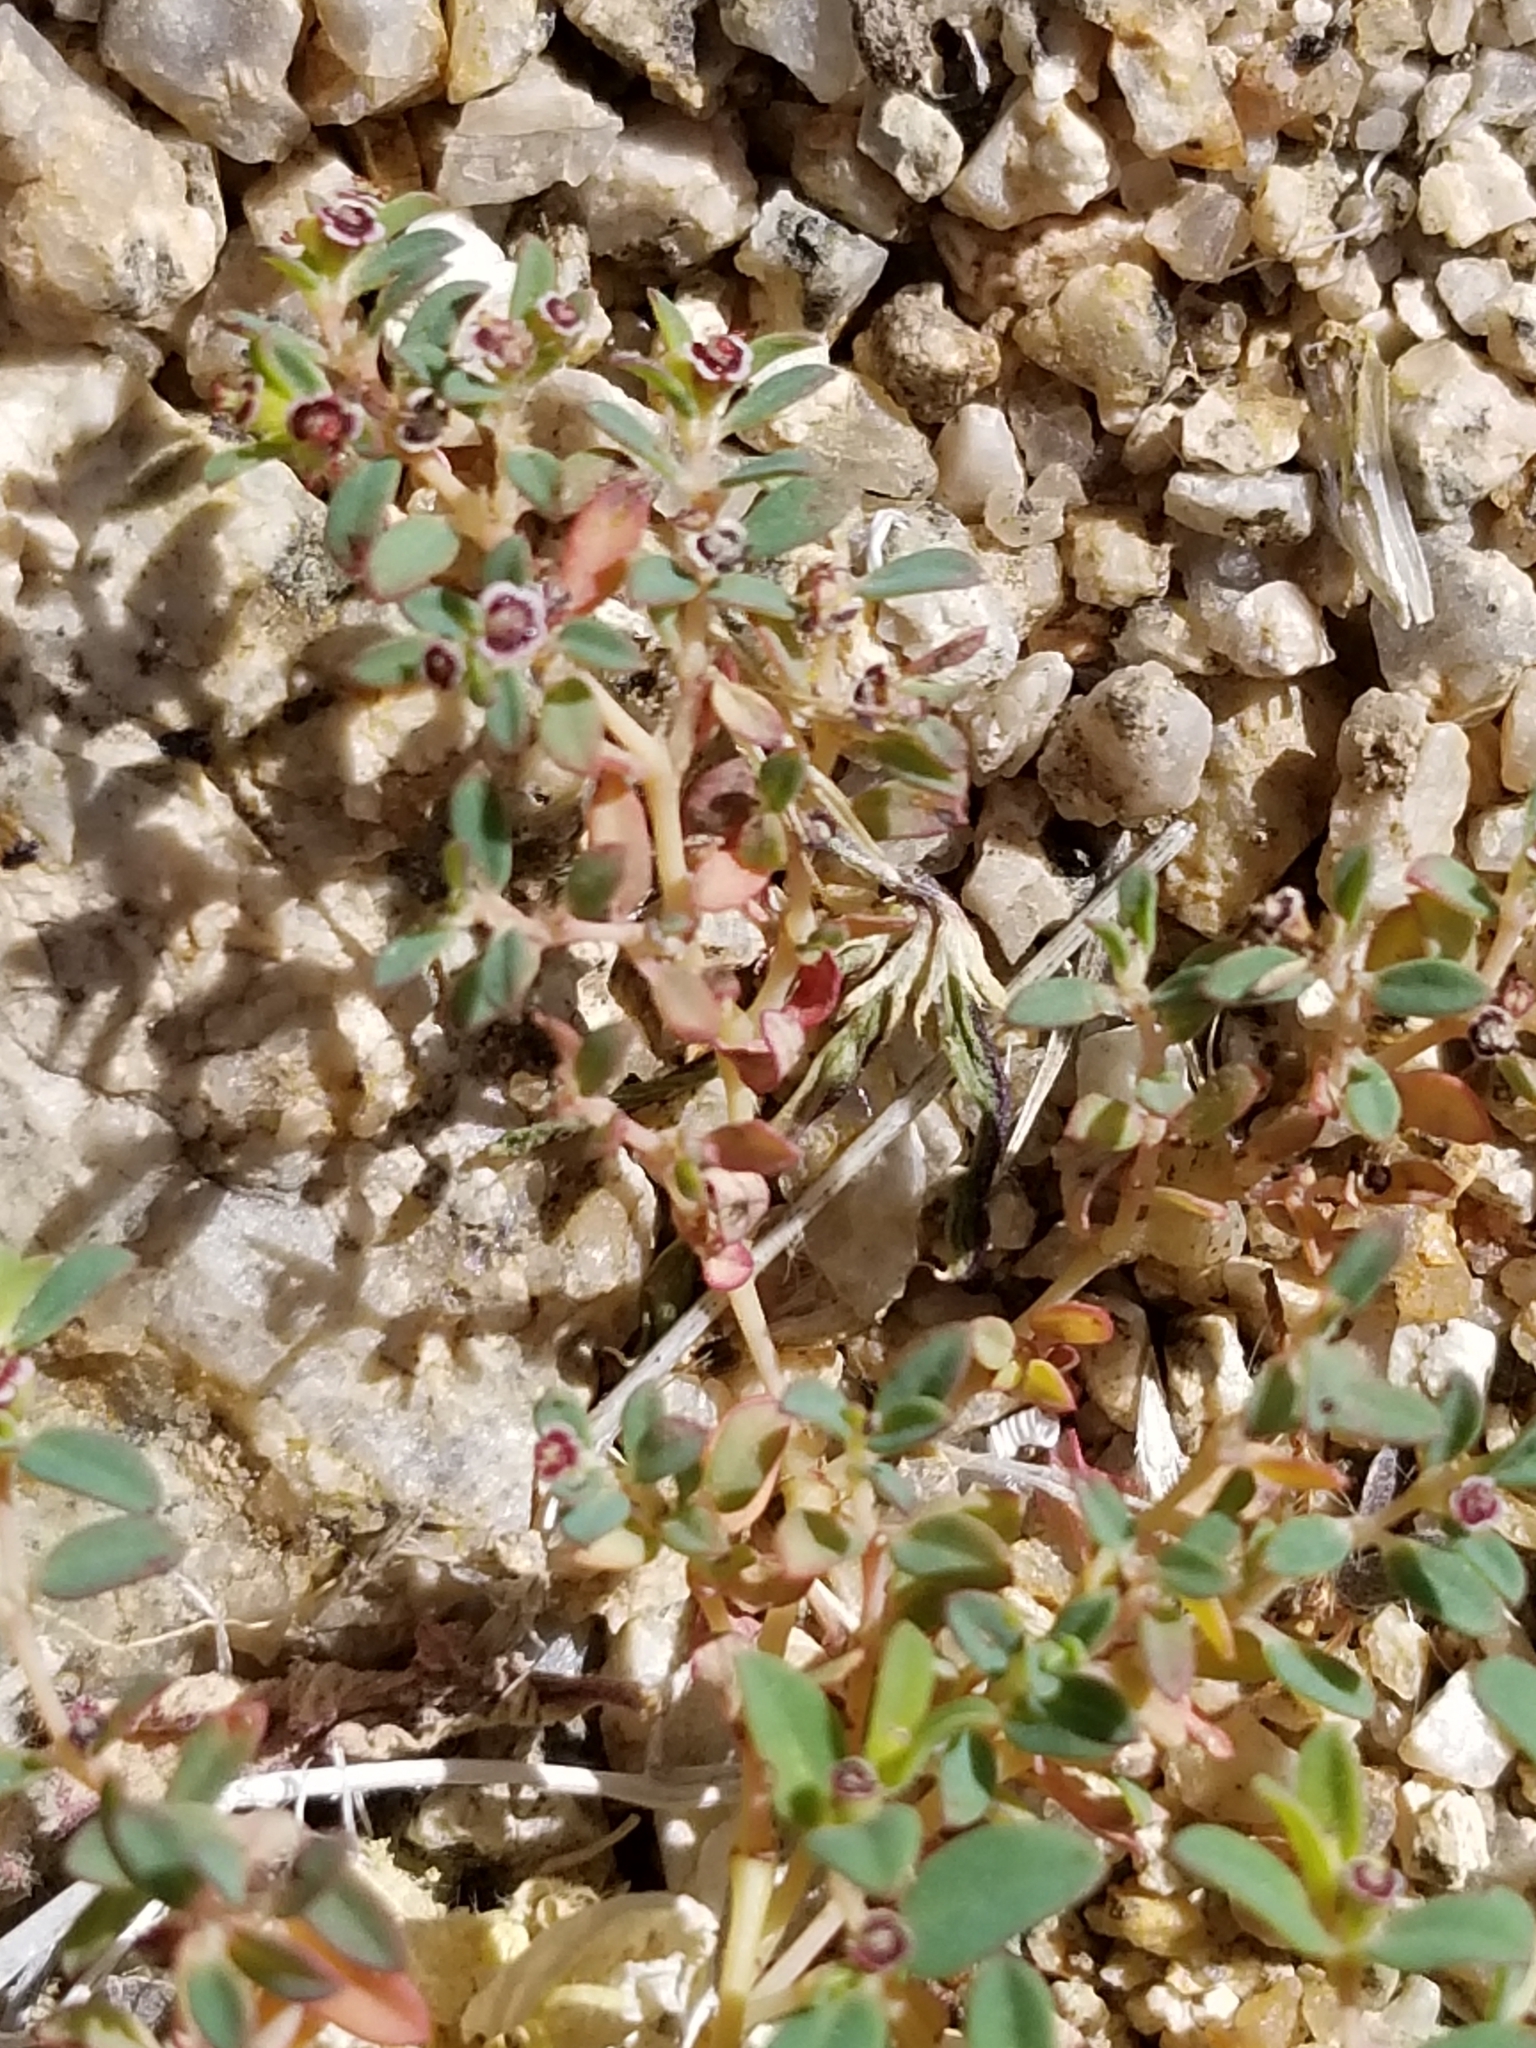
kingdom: Plantae
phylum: Tracheophyta
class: Magnoliopsida
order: Malpighiales
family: Euphorbiaceae
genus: Euphorbia
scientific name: Euphorbia polycarpa
